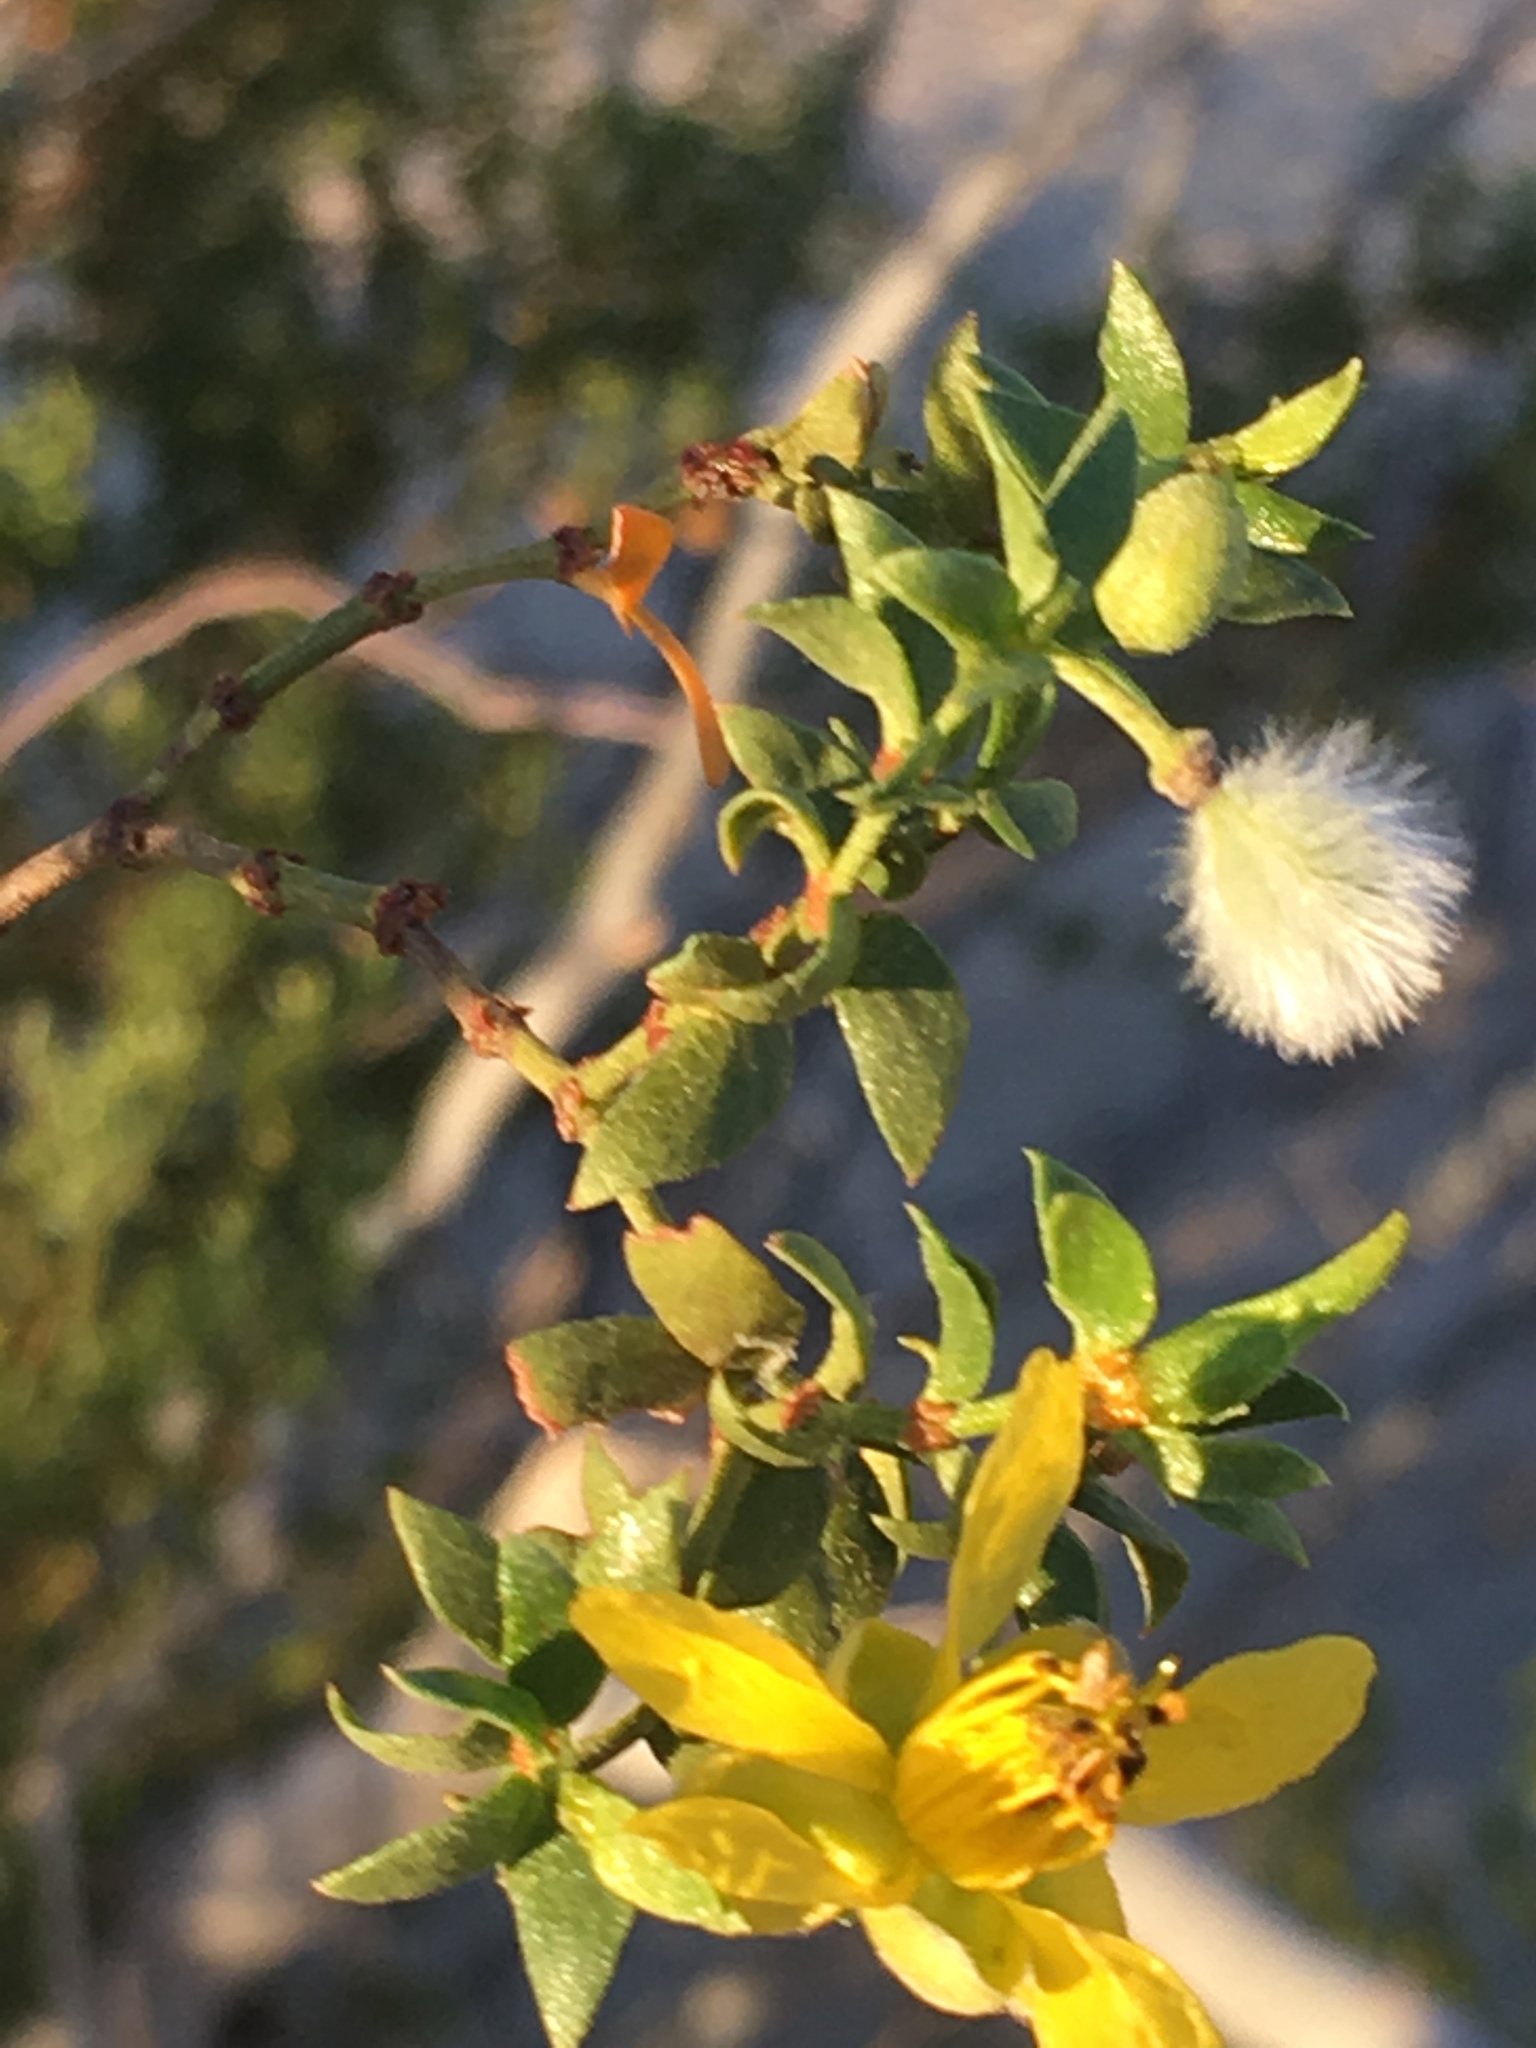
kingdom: Plantae
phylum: Tracheophyta
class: Magnoliopsida
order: Zygophyllales
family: Zygophyllaceae
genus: Larrea
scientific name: Larrea tridentata
